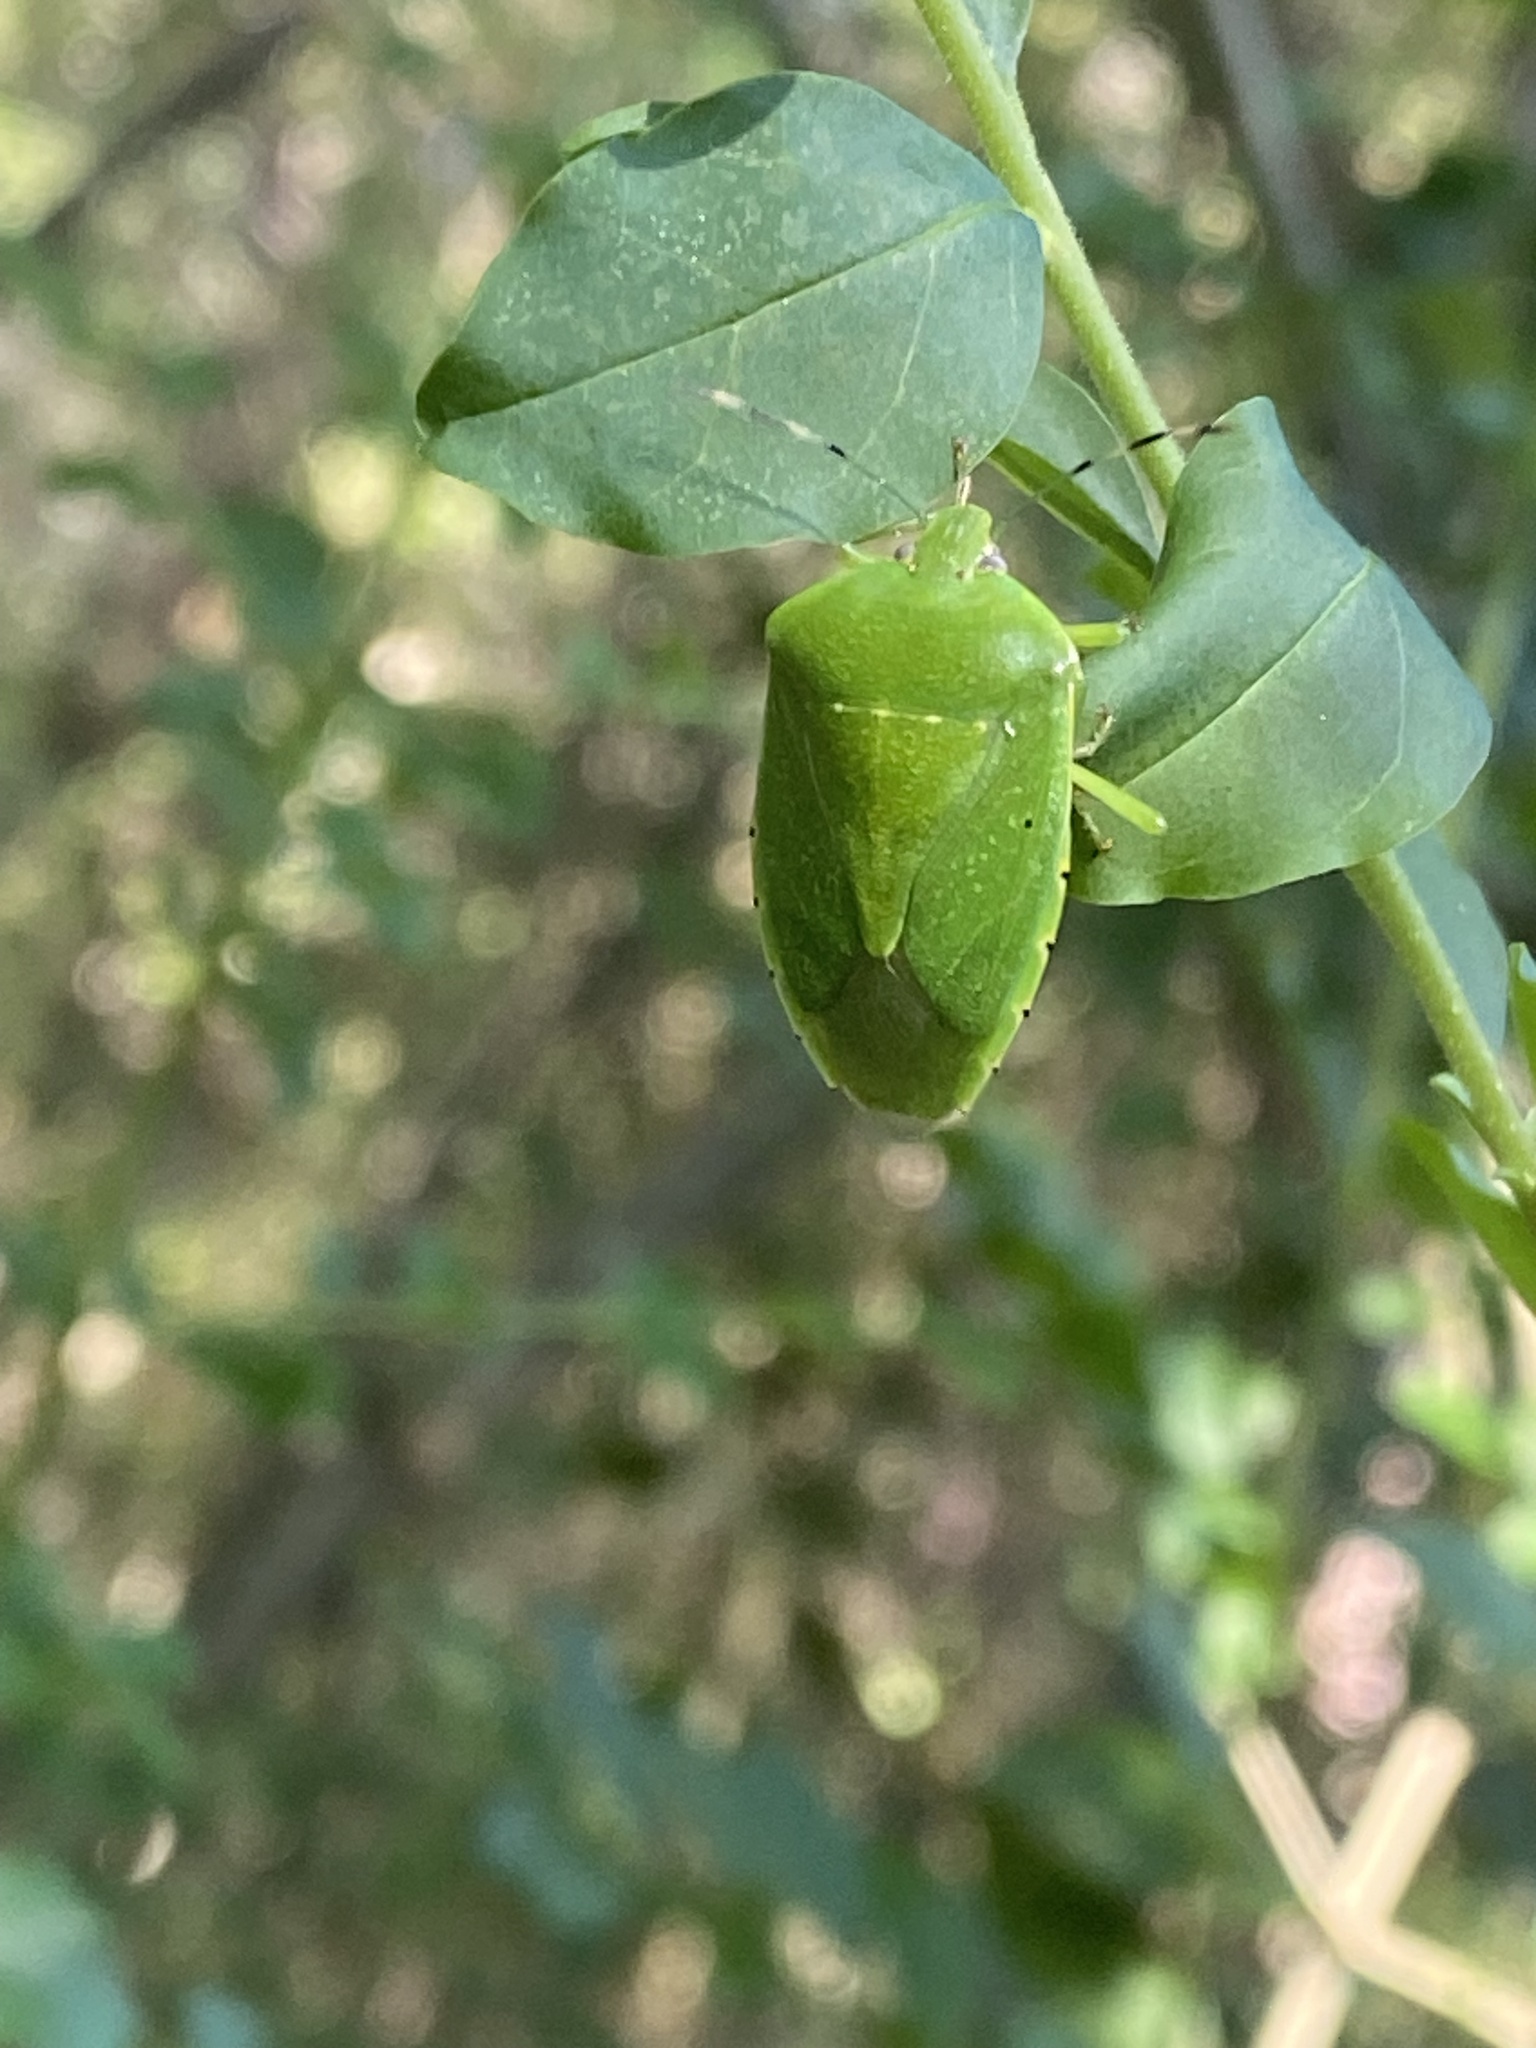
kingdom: Animalia
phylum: Arthropoda
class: Insecta
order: Hemiptera
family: Pentatomidae
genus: Chinavia
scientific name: Chinavia hilaris
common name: Green stink bug
